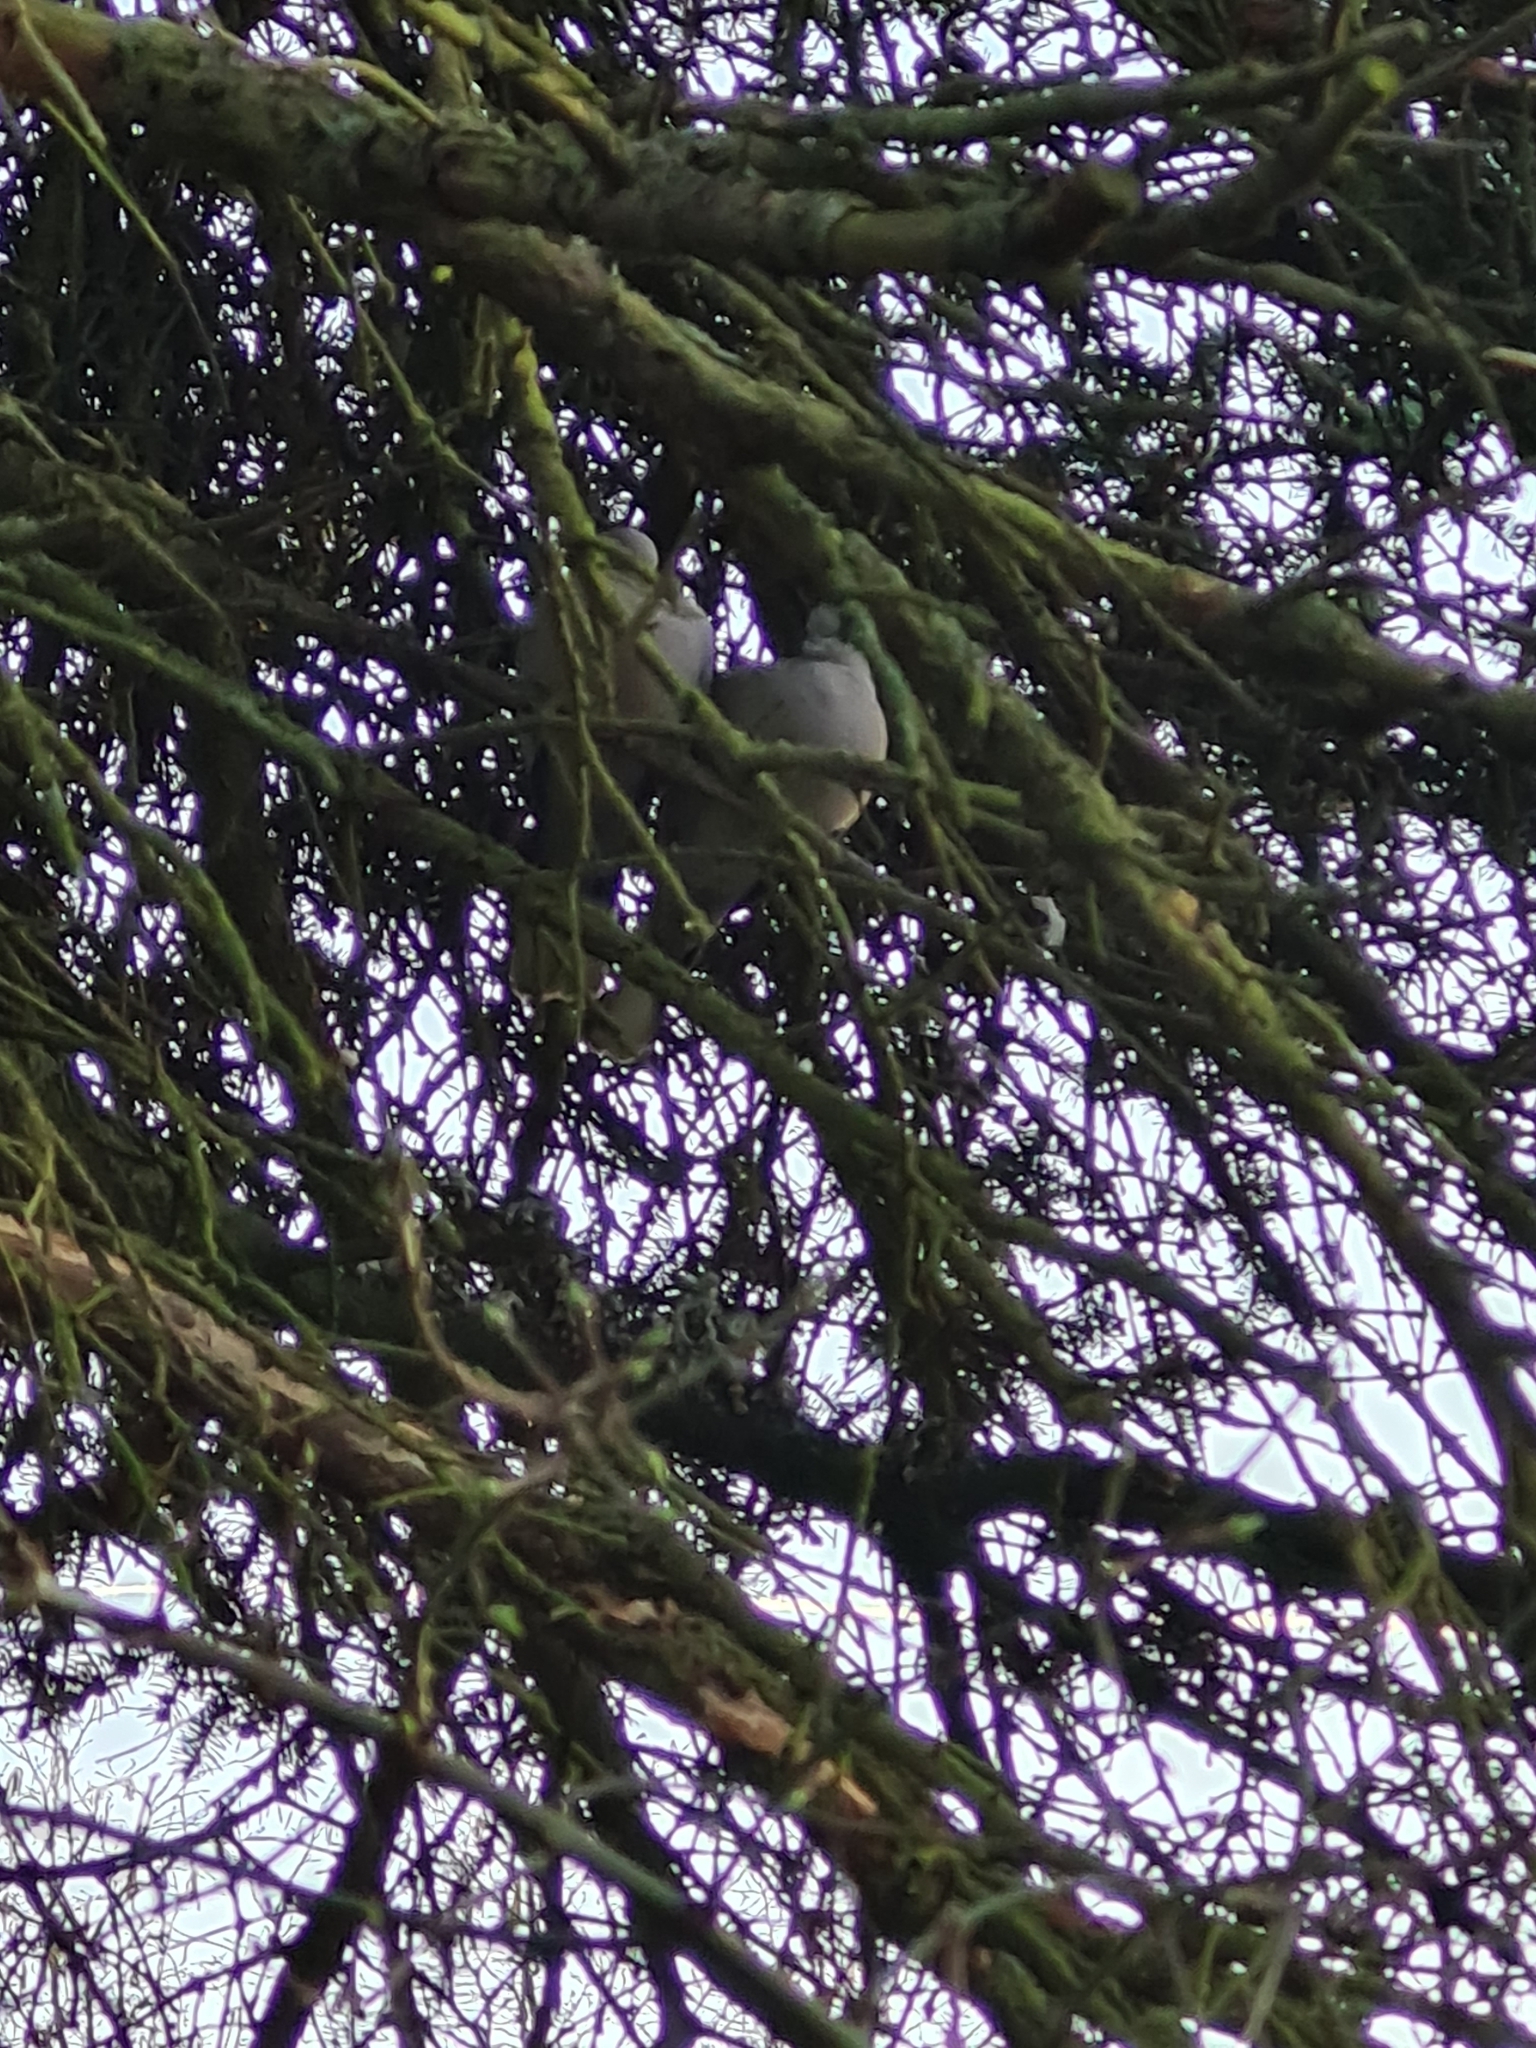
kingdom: Animalia
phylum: Chordata
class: Aves
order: Columbiformes
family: Columbidae
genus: Streptopelia
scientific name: Streptopelia decaocto
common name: Eurasian collared dove
